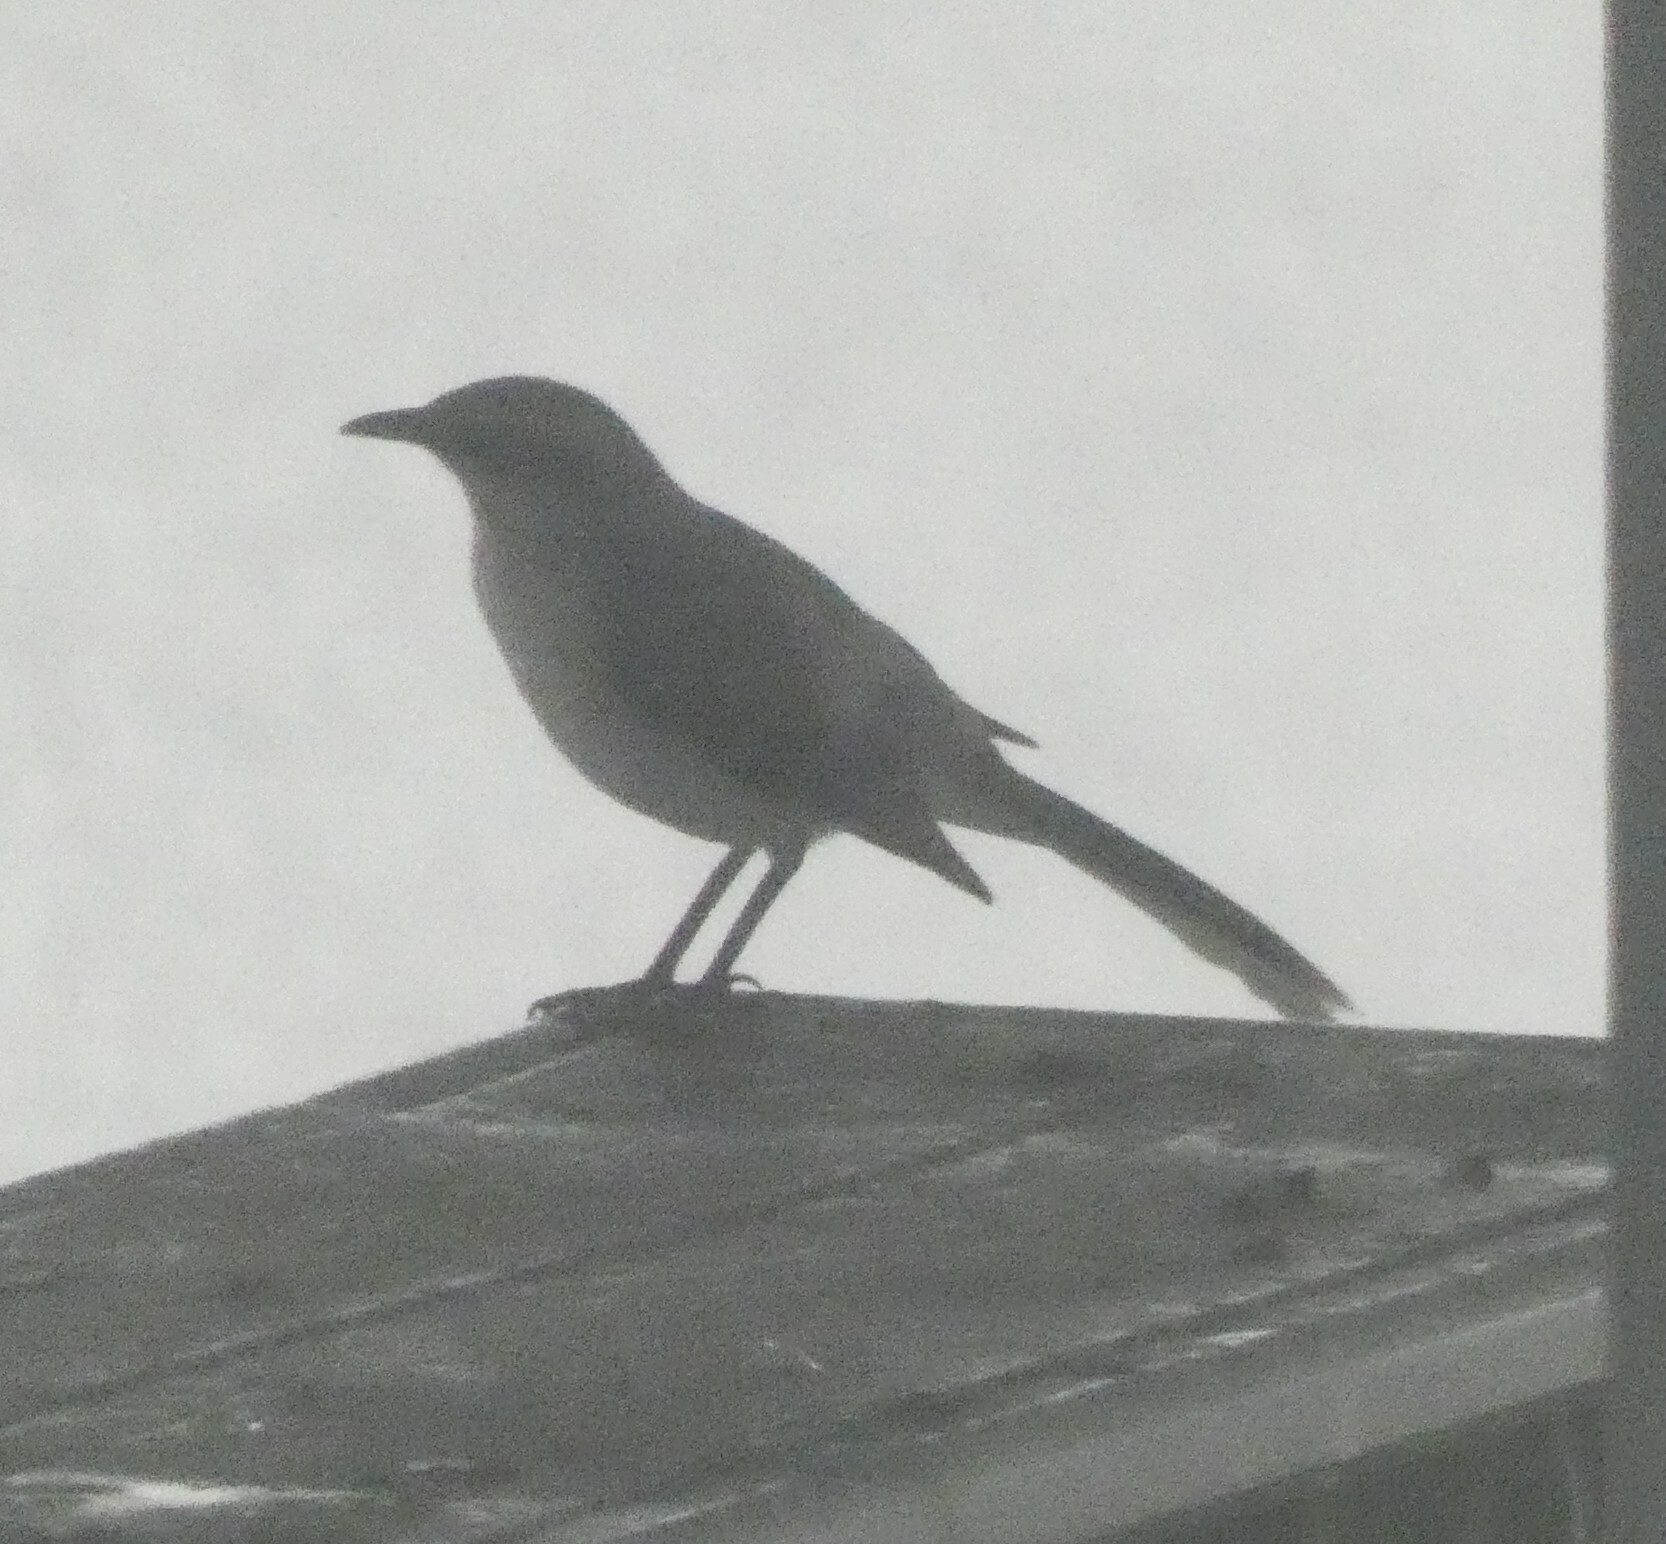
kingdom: Animalia
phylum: Chordata
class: Aves
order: Passeriformes
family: Mimidae
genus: Mimus
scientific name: Mimus gilvus
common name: Tropical mockingbird
